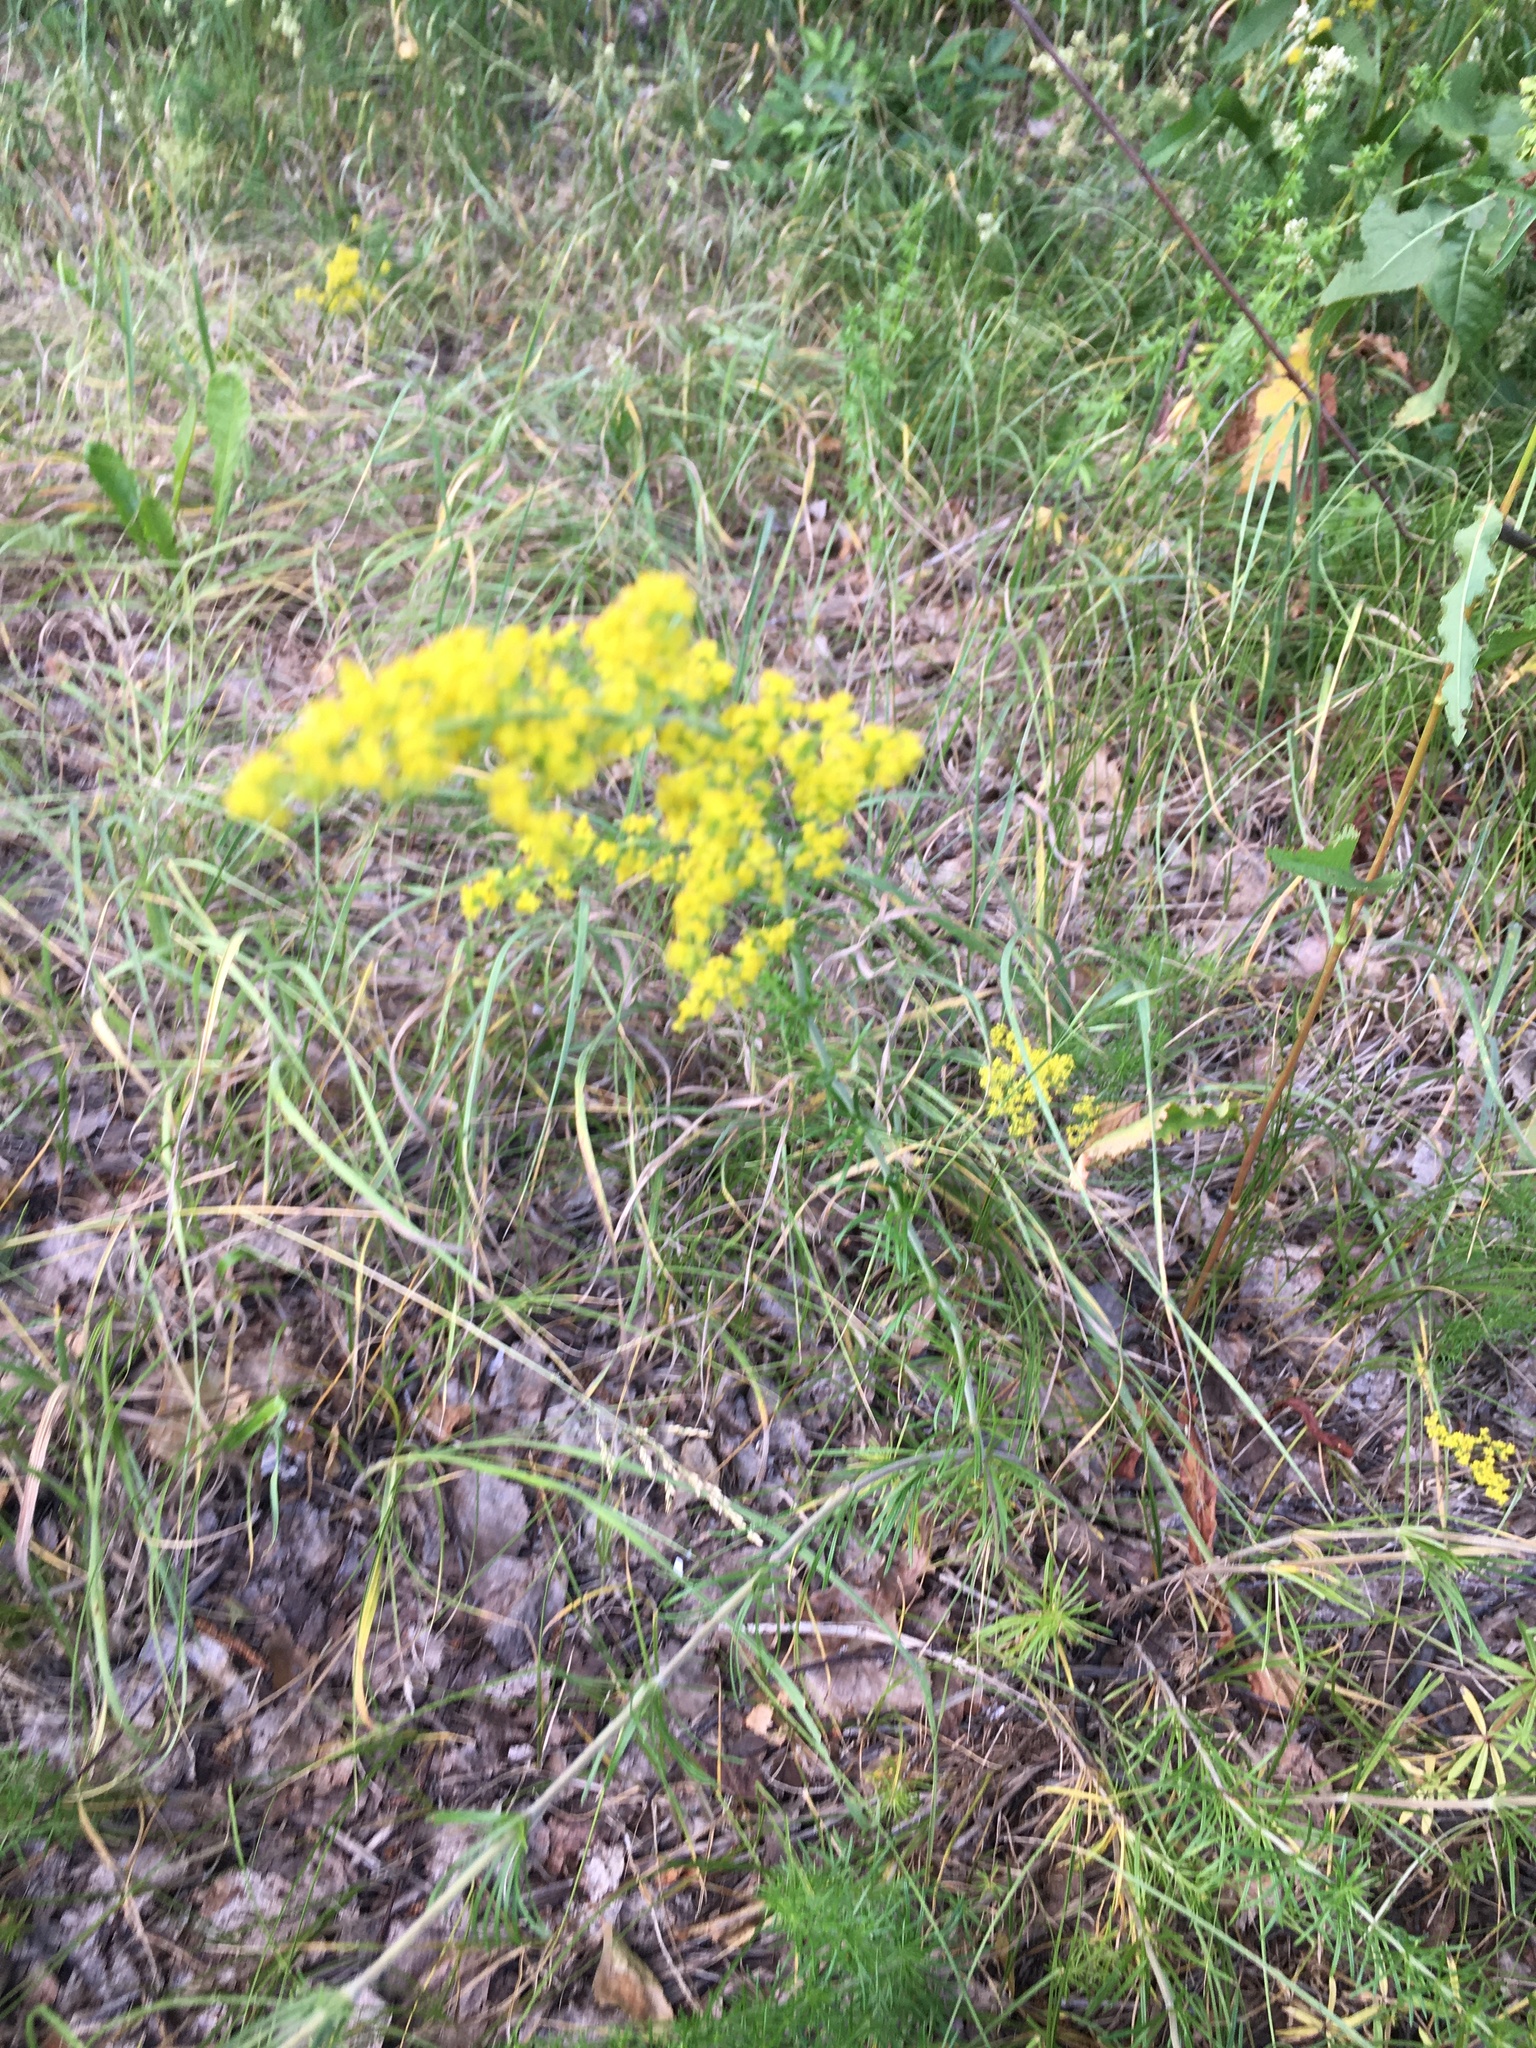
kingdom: Plantae
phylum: Tracheophyta
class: Magnoliopsida
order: Gentianales
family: Rubiaceae
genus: Galium
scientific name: Galium verum
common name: Lady's bedstraw
